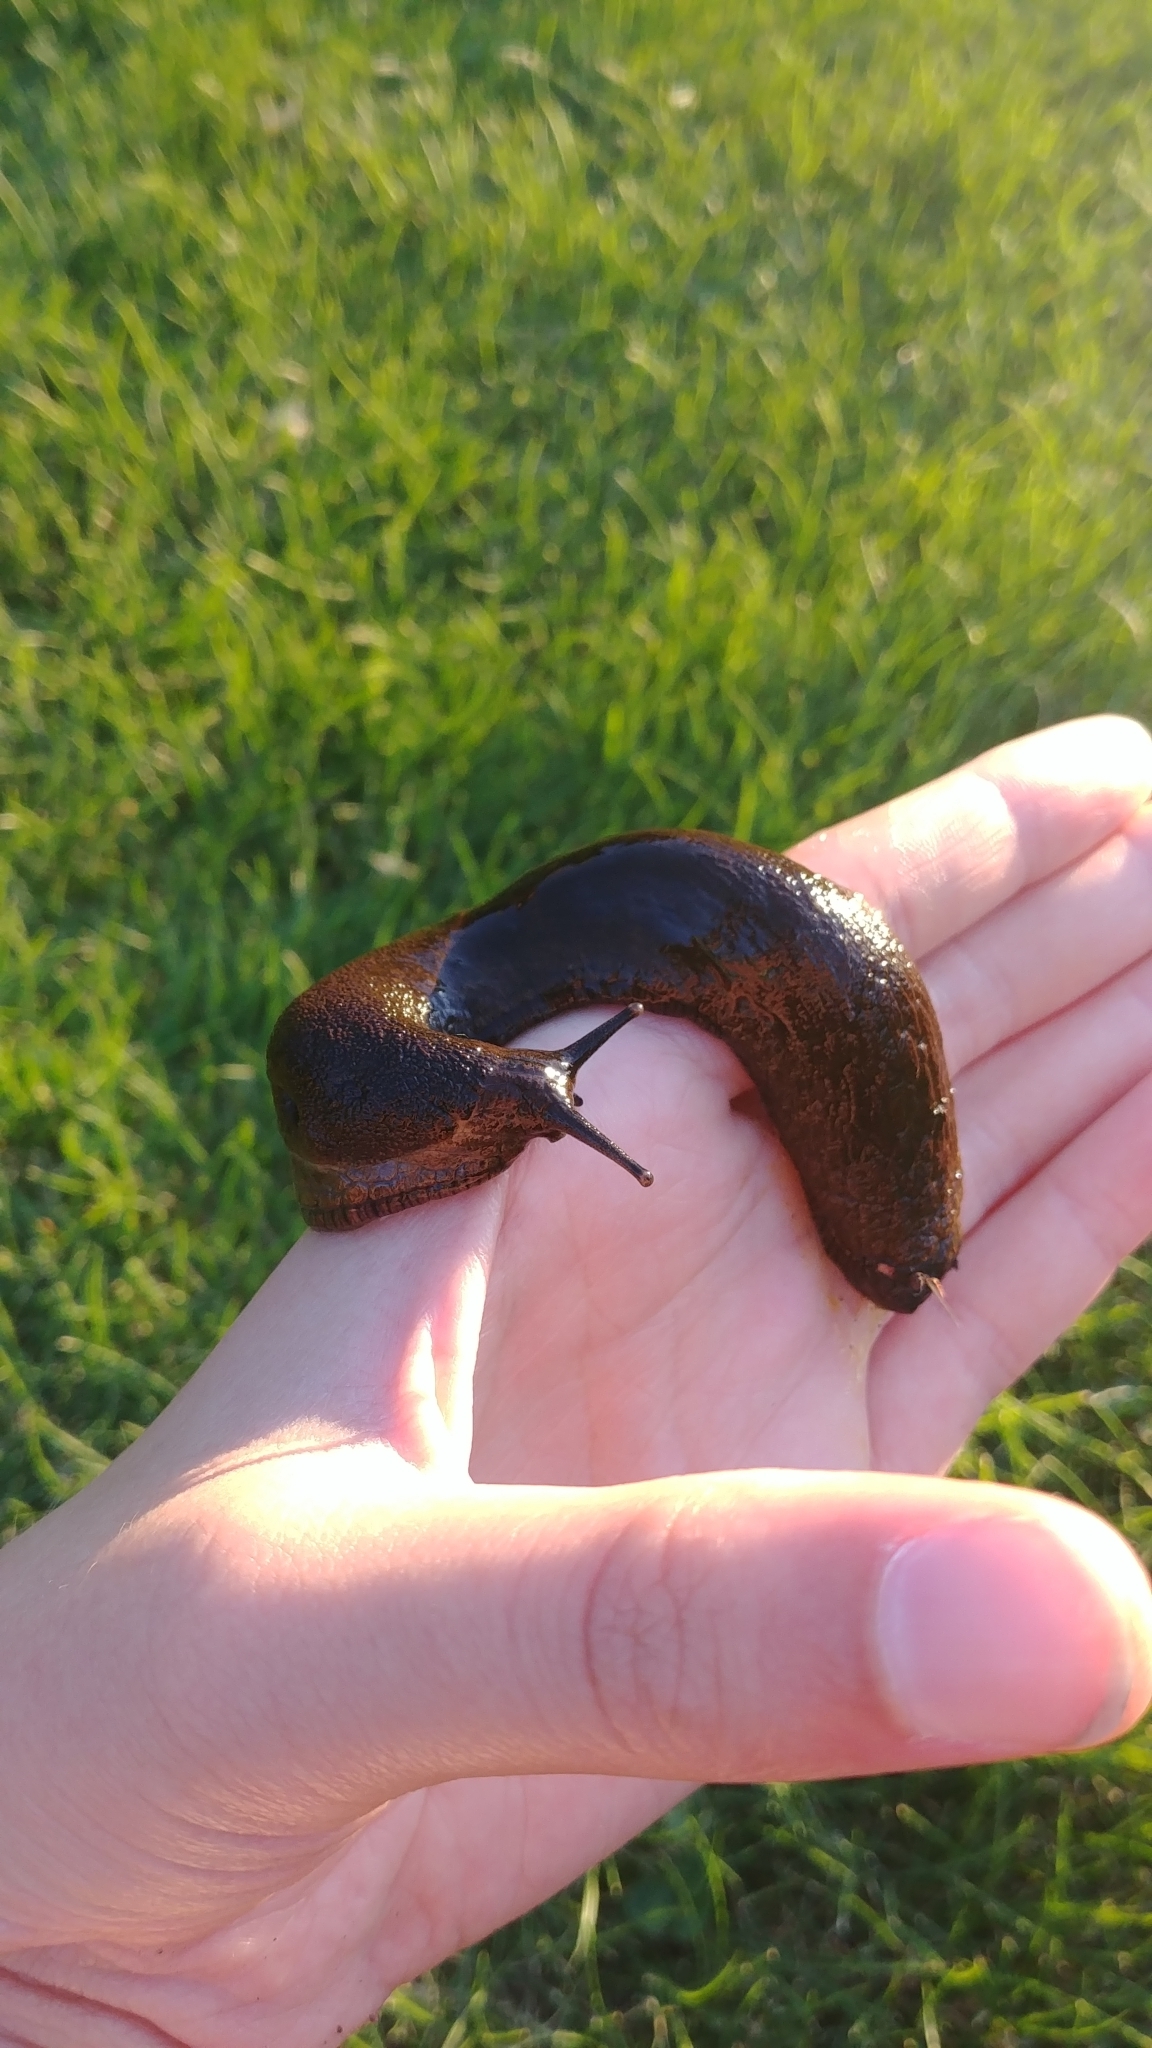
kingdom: Animalia
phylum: Mollusca
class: Gastropoda
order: Stylommatophora
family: Arionidae
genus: Arion
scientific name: Arion
